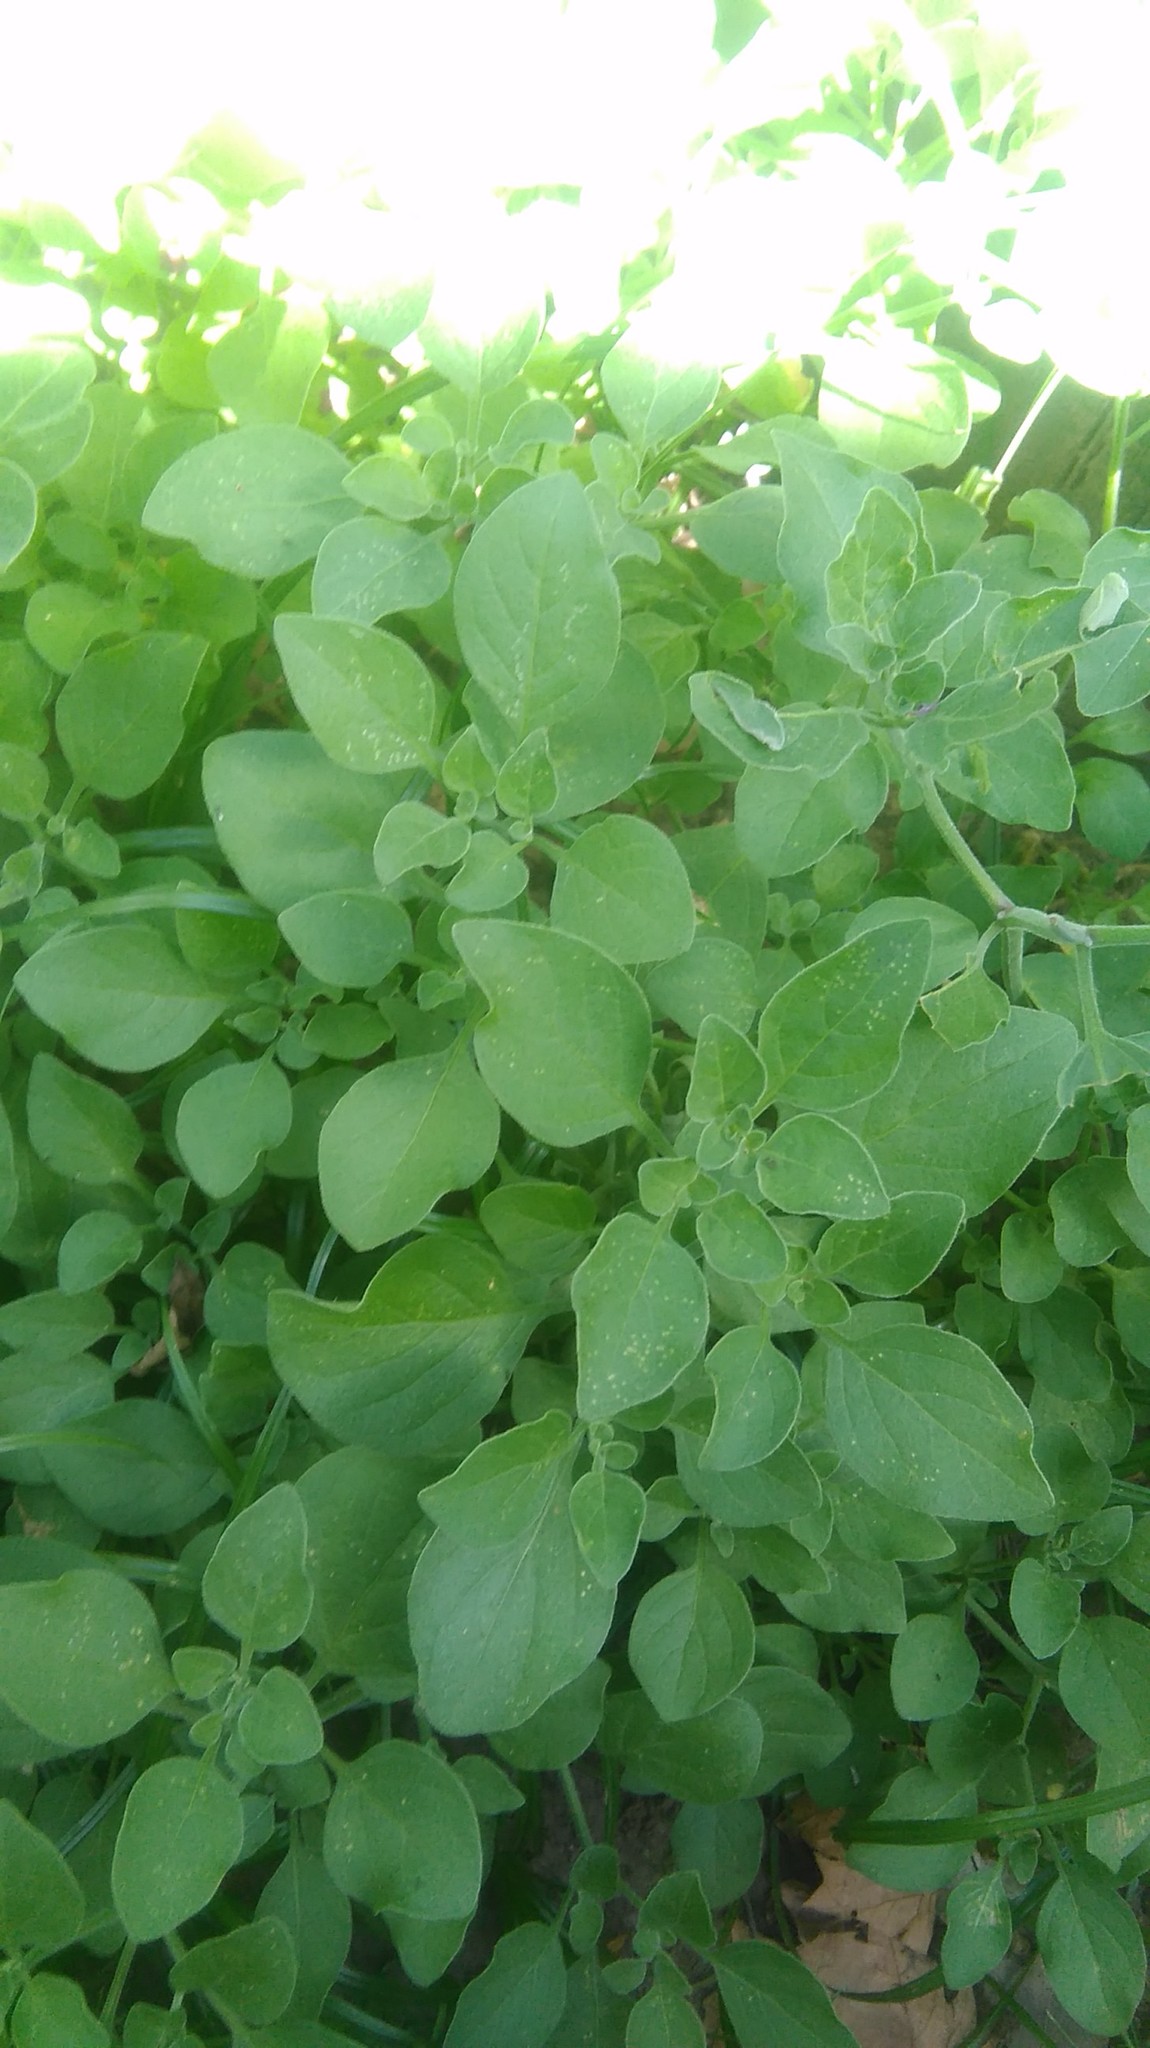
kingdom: Plantae
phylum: Tracheophyta
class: Magnoliopsida
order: Solanales
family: Solanaceae
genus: Salpichroa
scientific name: Salpichroa origanifolia
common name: Lily-of-the-valley-vine
